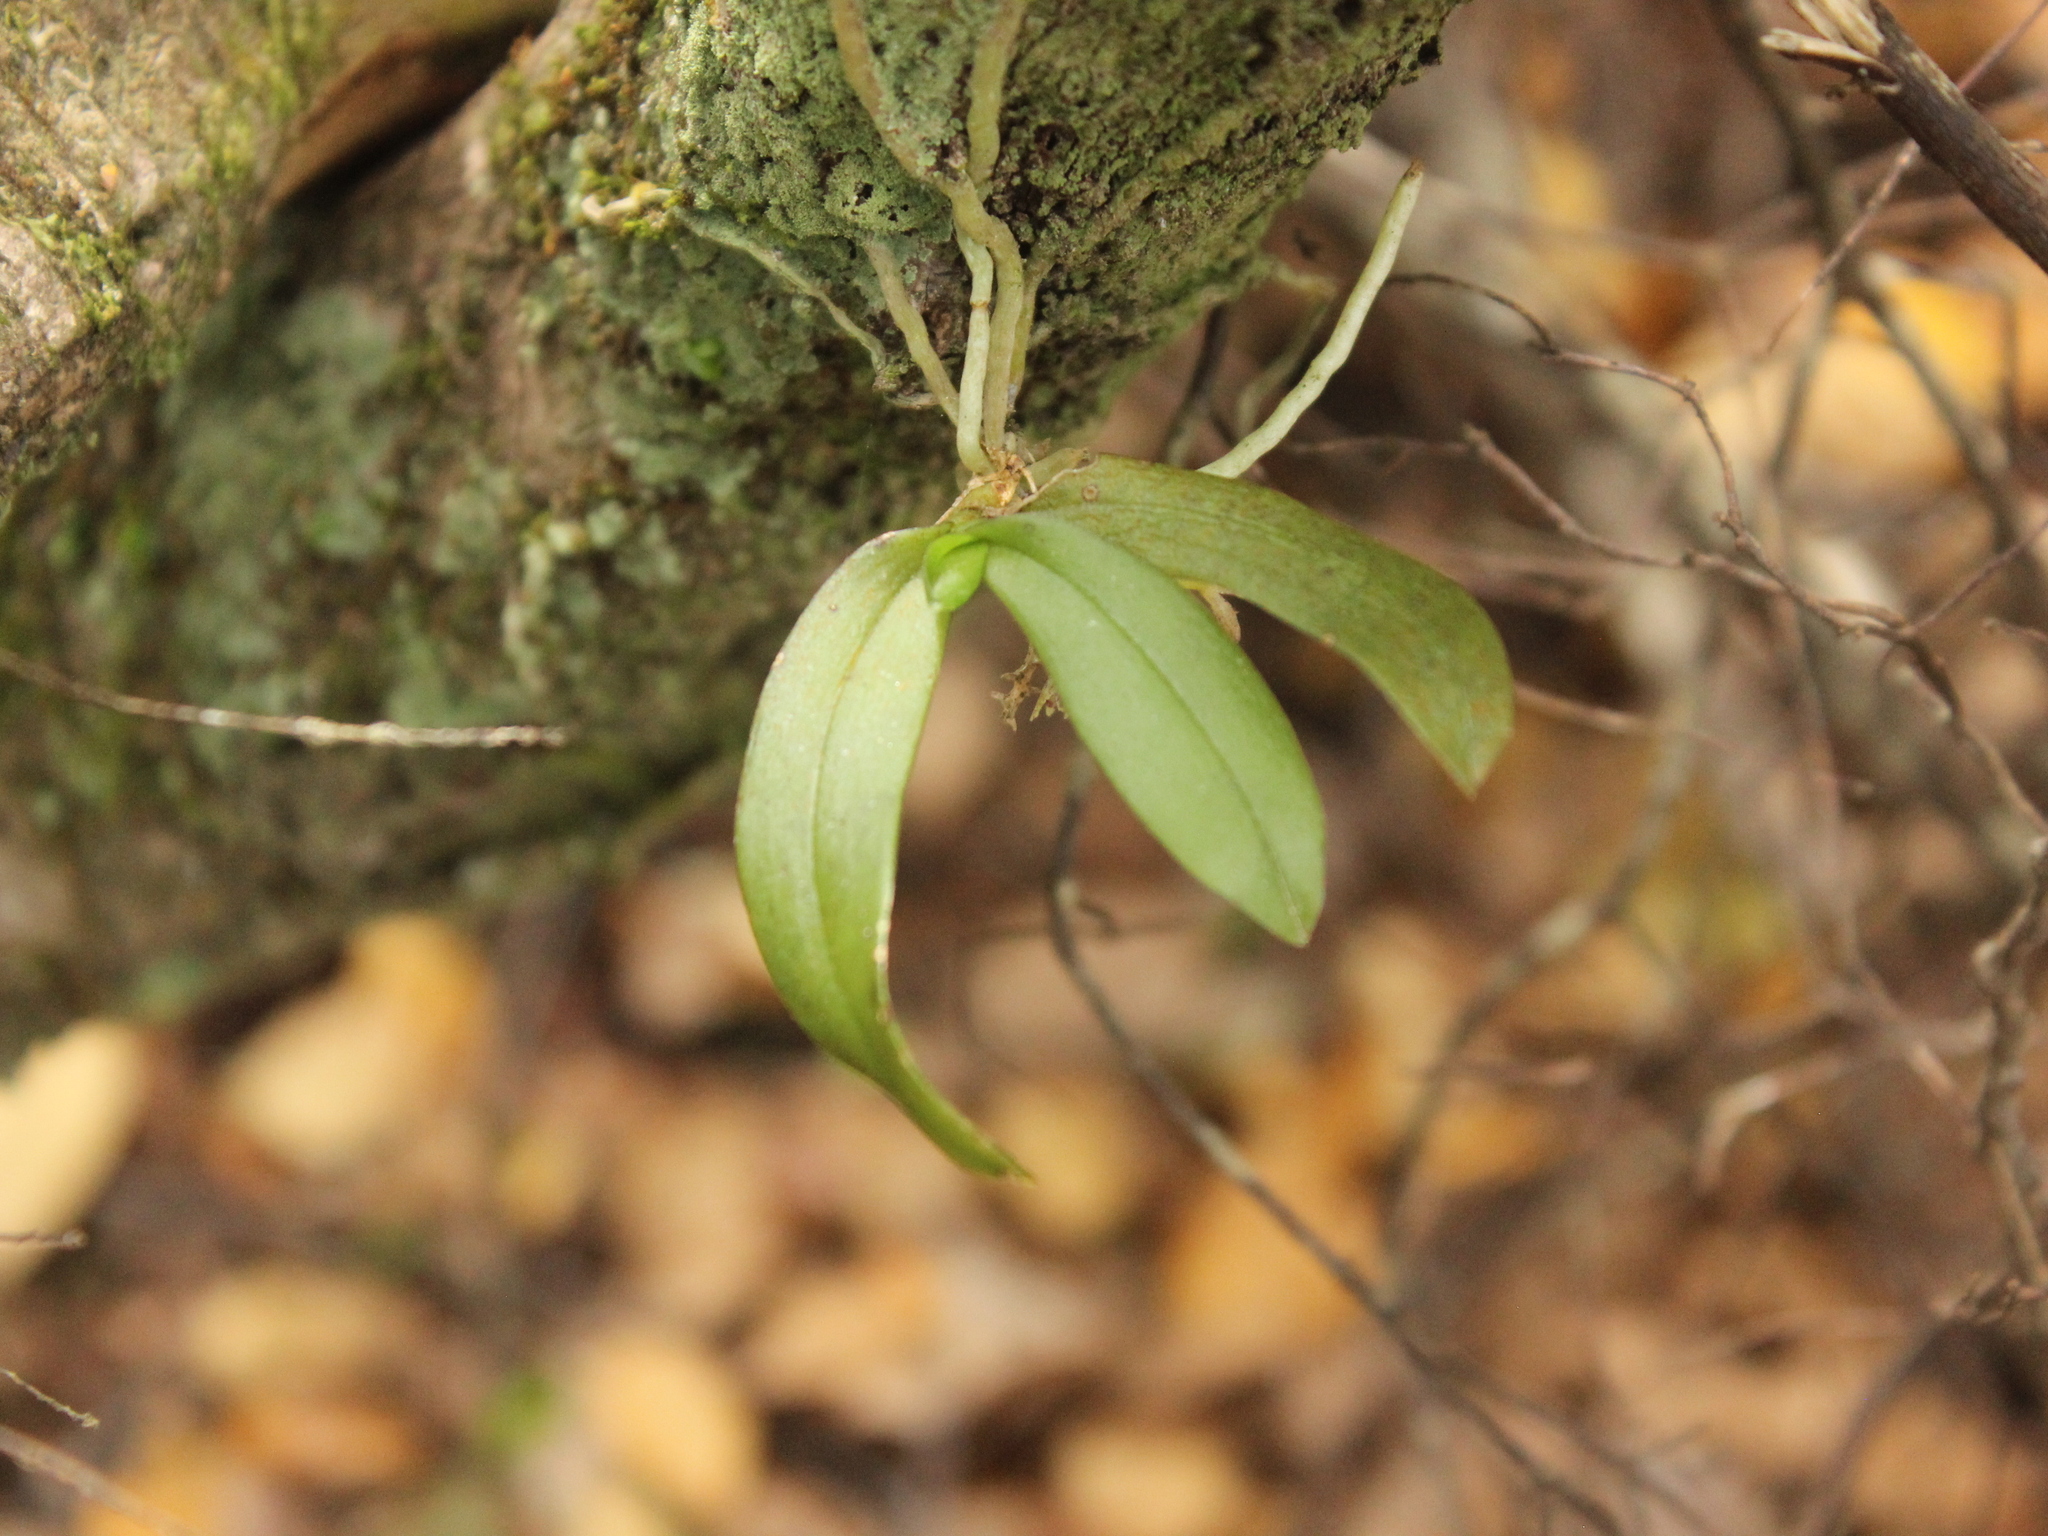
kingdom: Plantae
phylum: Tracheophyta
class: Liliopsida
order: Asparagales
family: Orchidaceae
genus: Drymoanthus
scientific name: Drymoanthus adversus
